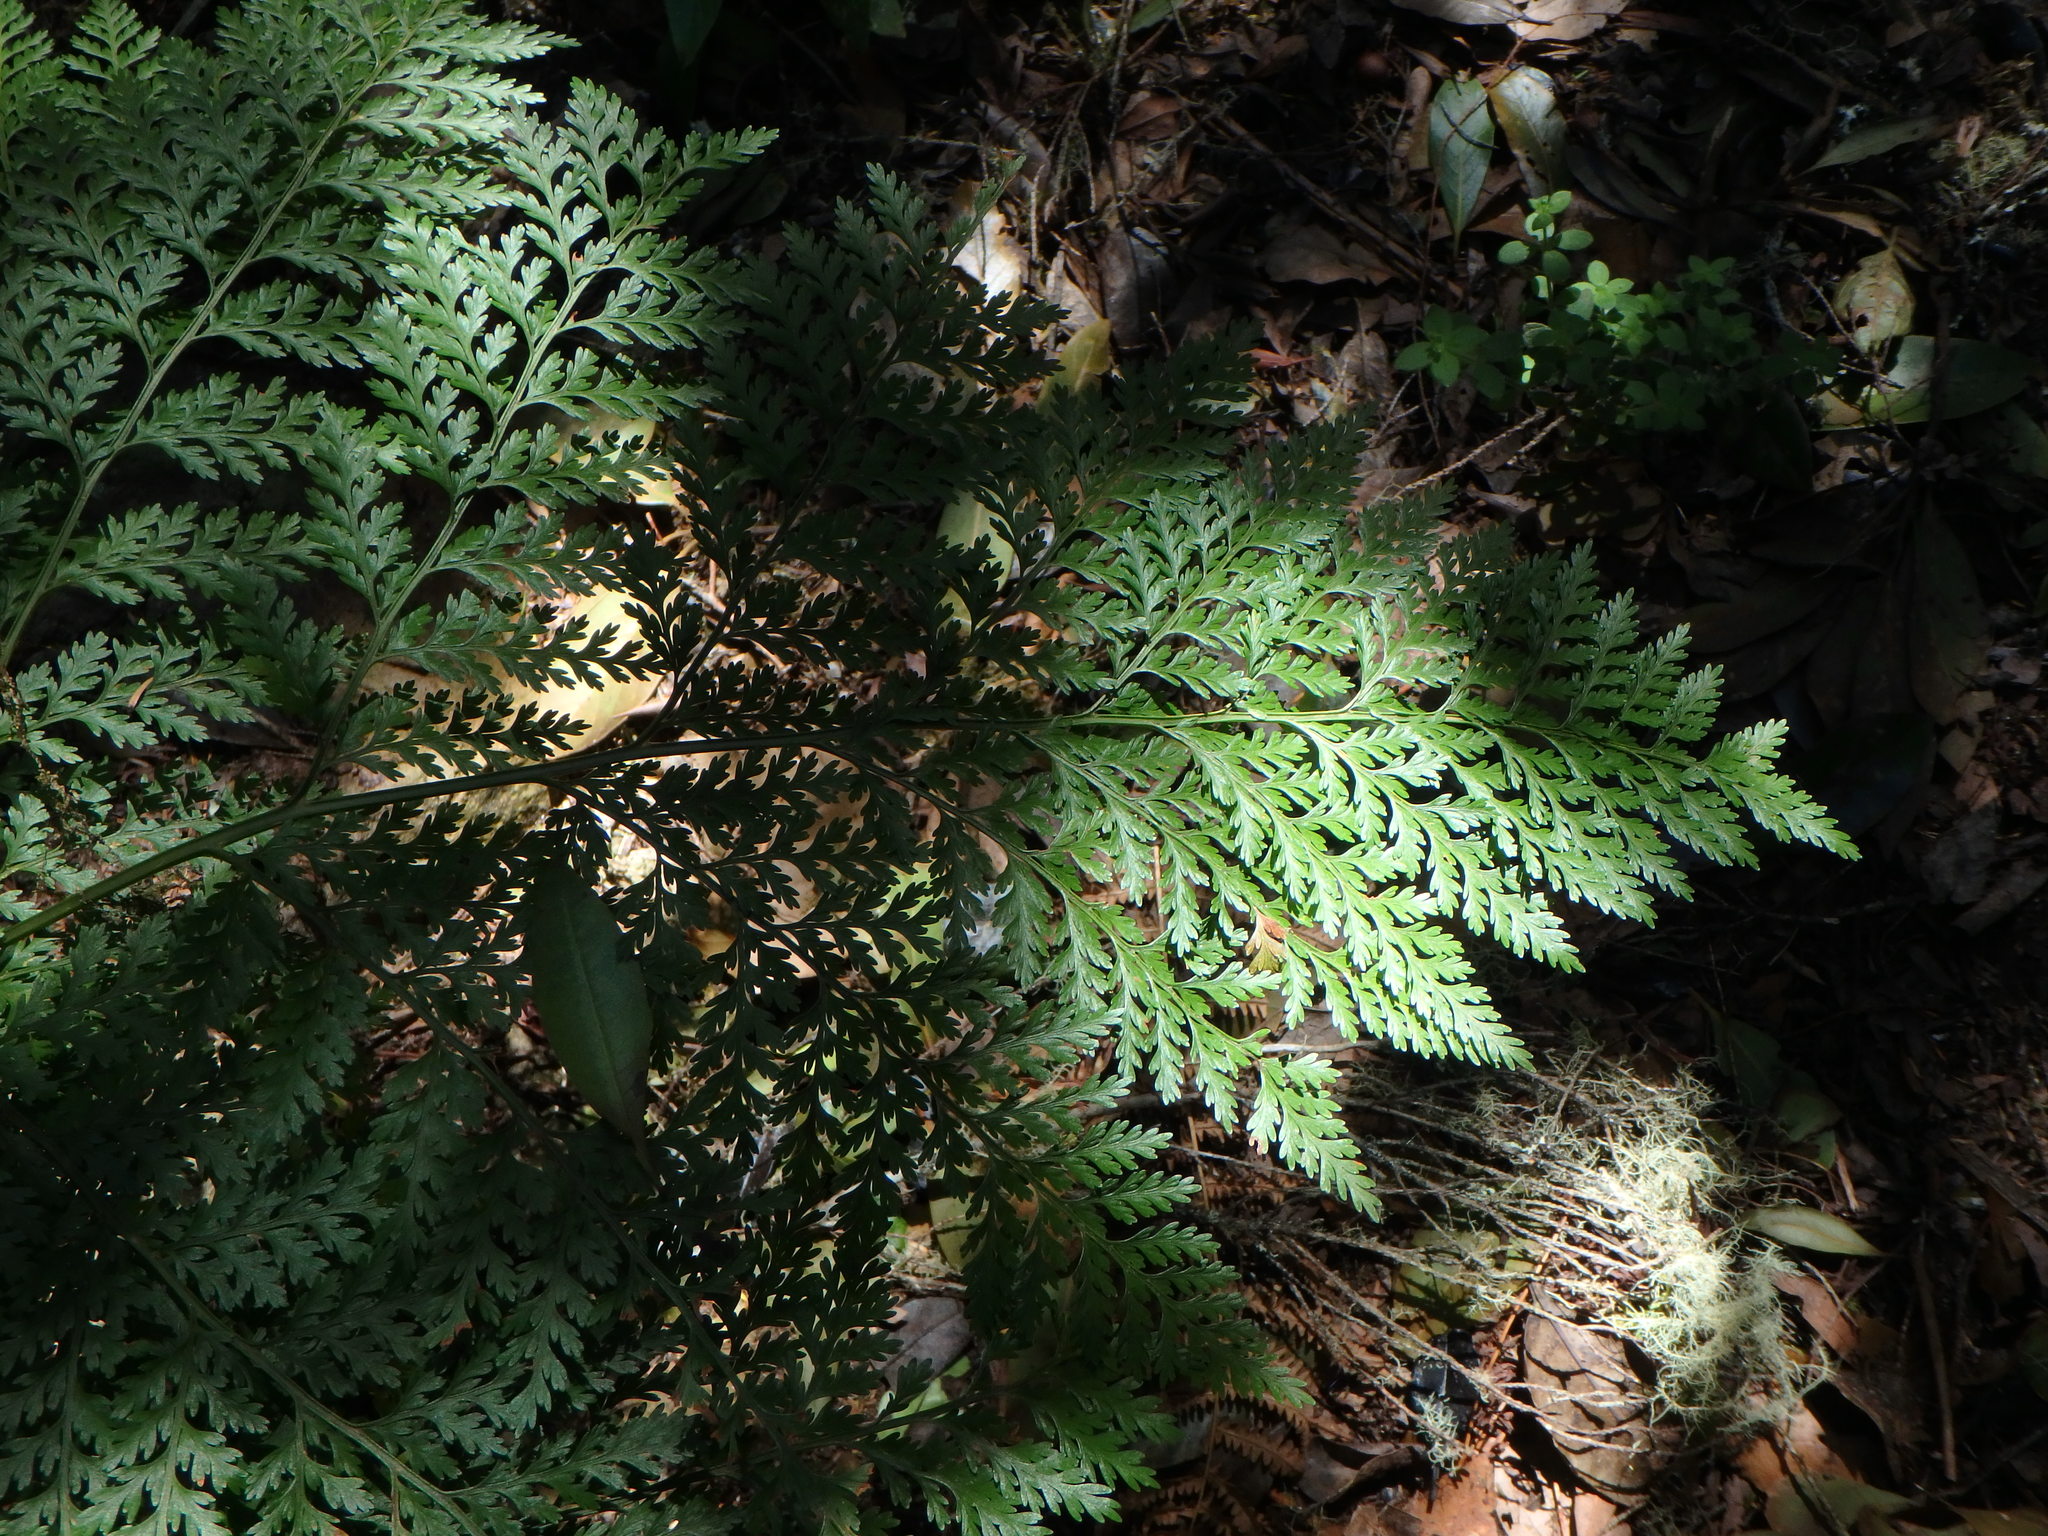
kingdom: Plantae
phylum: Tracheophyta
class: Polypodiopsida
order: Polypodiales
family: Davalliaceae
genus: Davallia
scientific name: Davallia canariensis
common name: Hare's-foot fern
